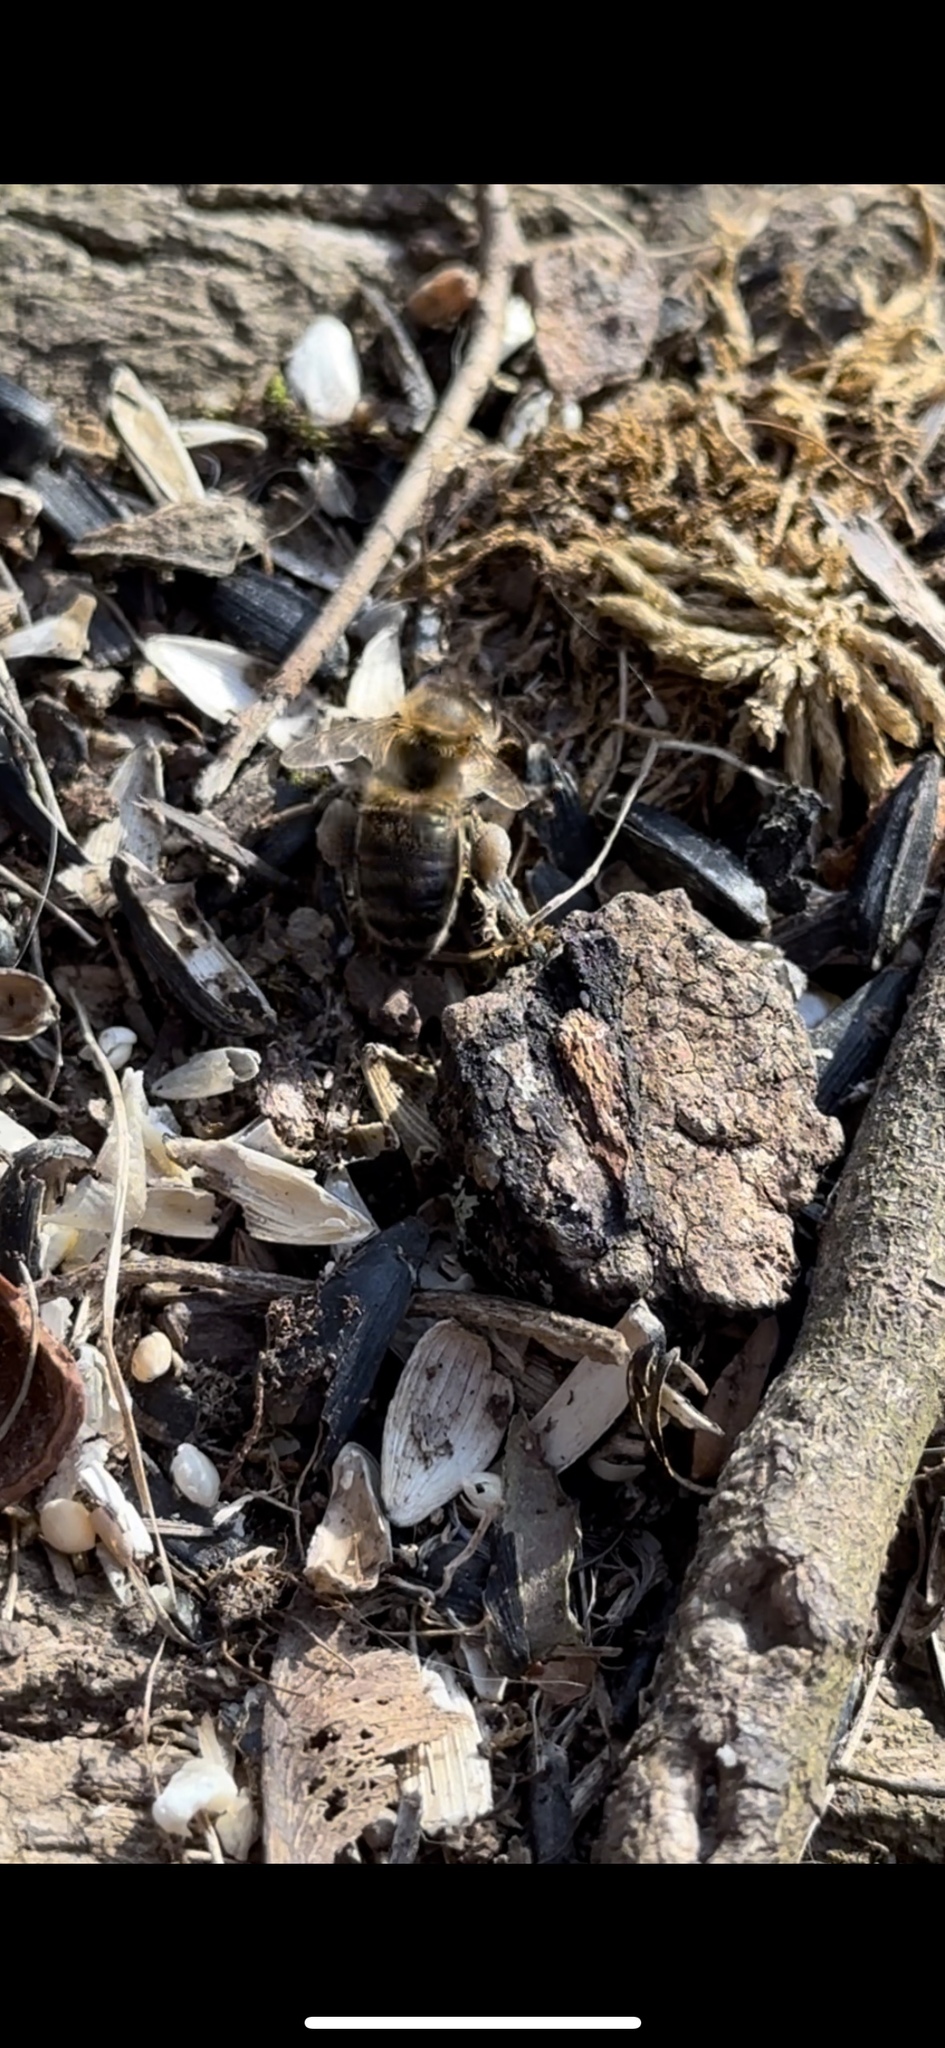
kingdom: Animalia
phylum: Arthropoda
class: Insecta
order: Hymenoptera
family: Apidae
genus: Apis
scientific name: Apis mellifera
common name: Honey bee
